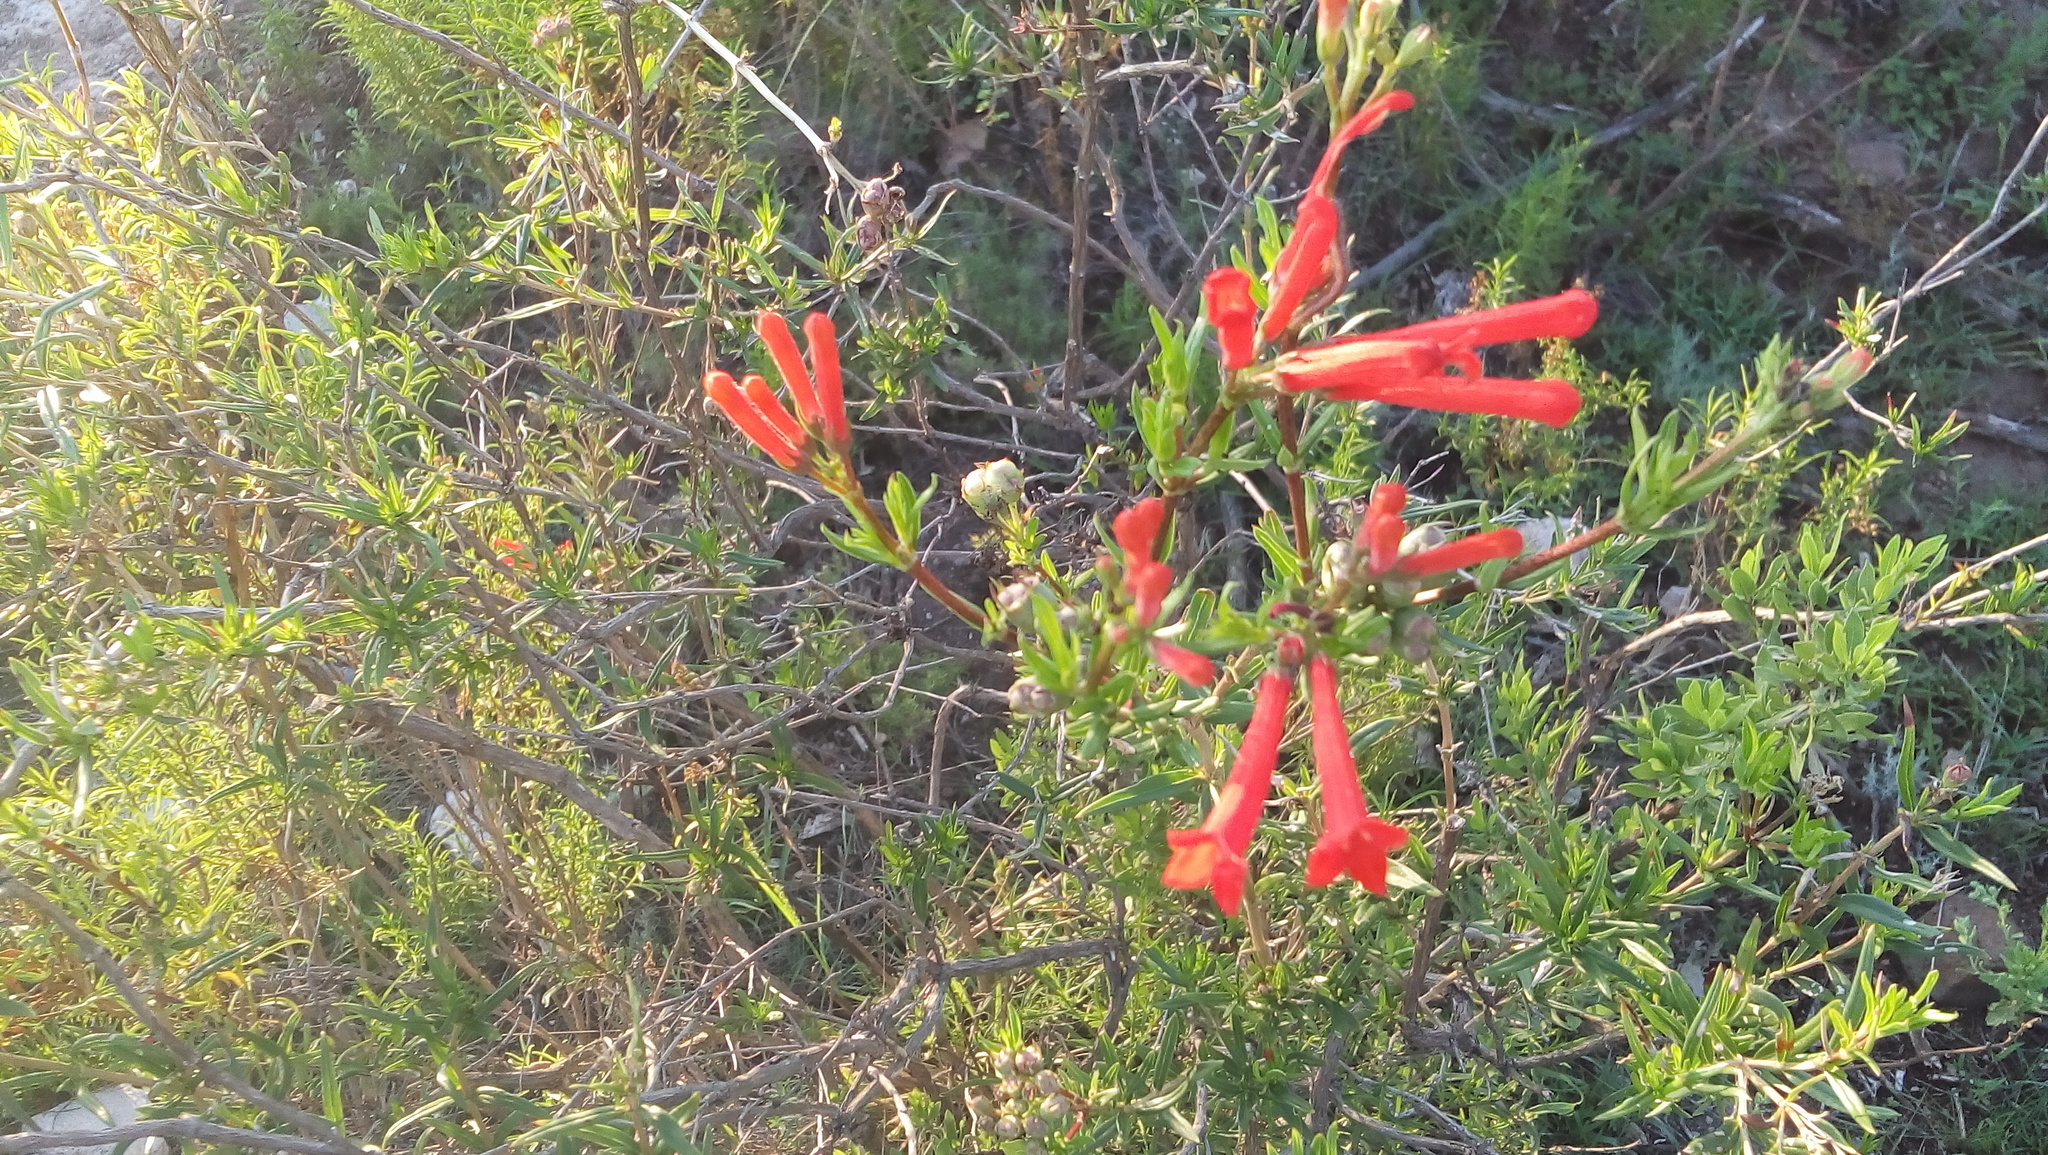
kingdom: Plantae
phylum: Tracheophyta
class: Magnoliopsida
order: Gentianales
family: Rubiaceae
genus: Bouvardia
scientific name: Bouvardia ternifolia
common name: Scarlet bouvardia
